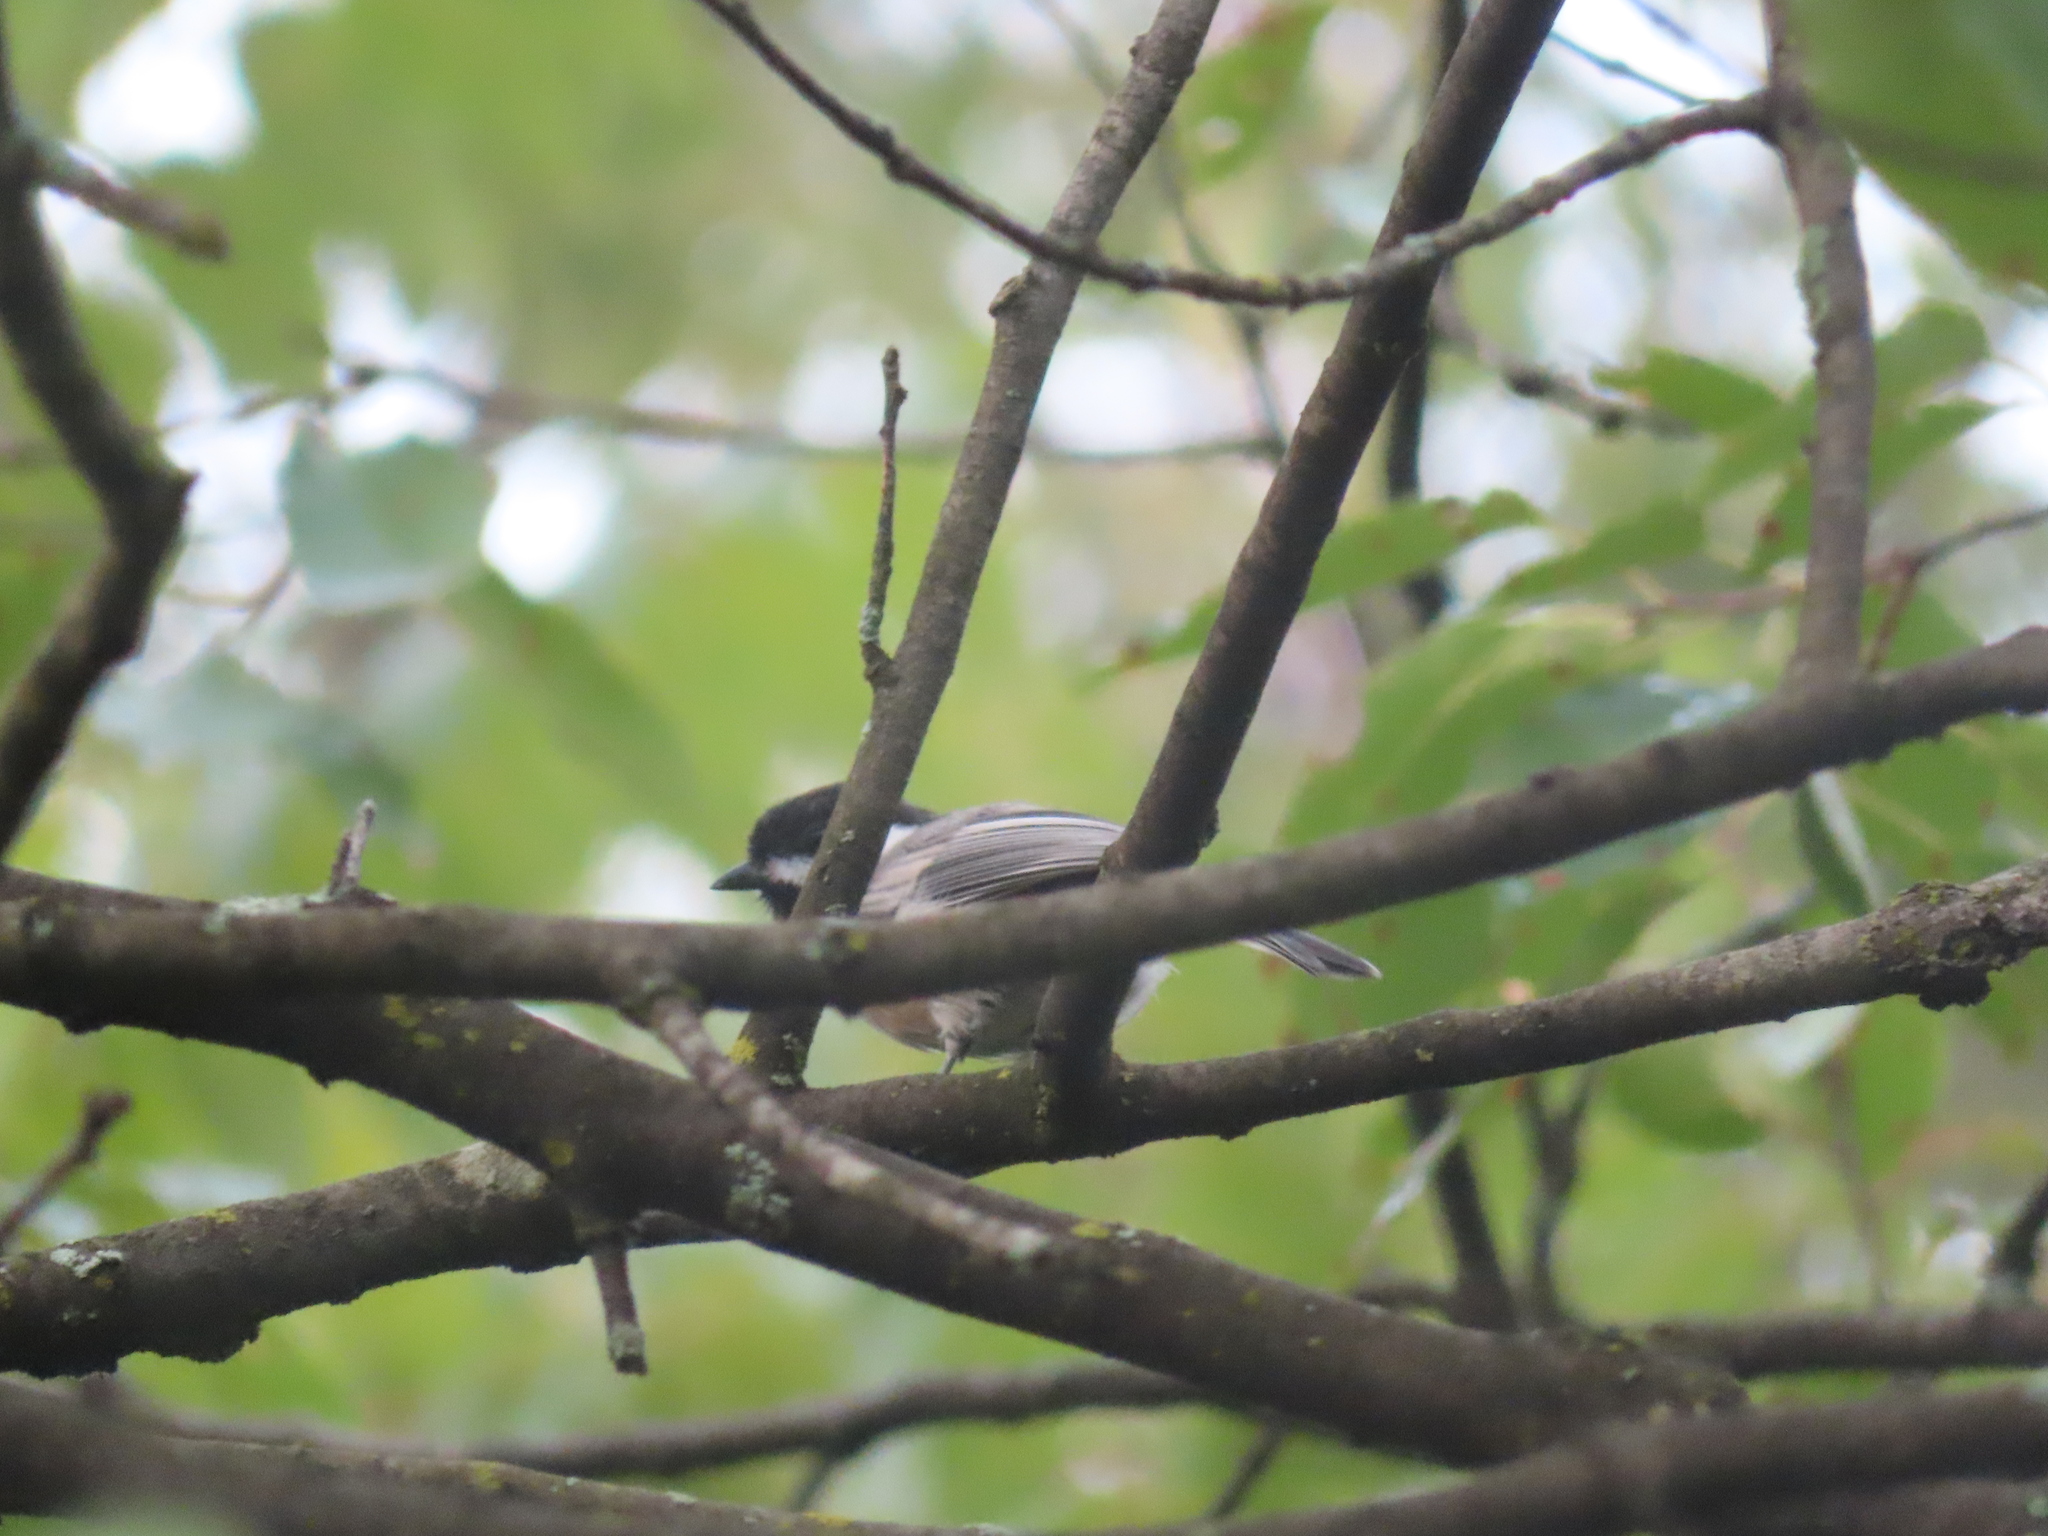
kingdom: Animalia
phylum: Chordata
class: Aves
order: Passeriformes
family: Paridae
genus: Poecile
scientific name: Poecile atricapillus
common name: Black-capped chickadee
